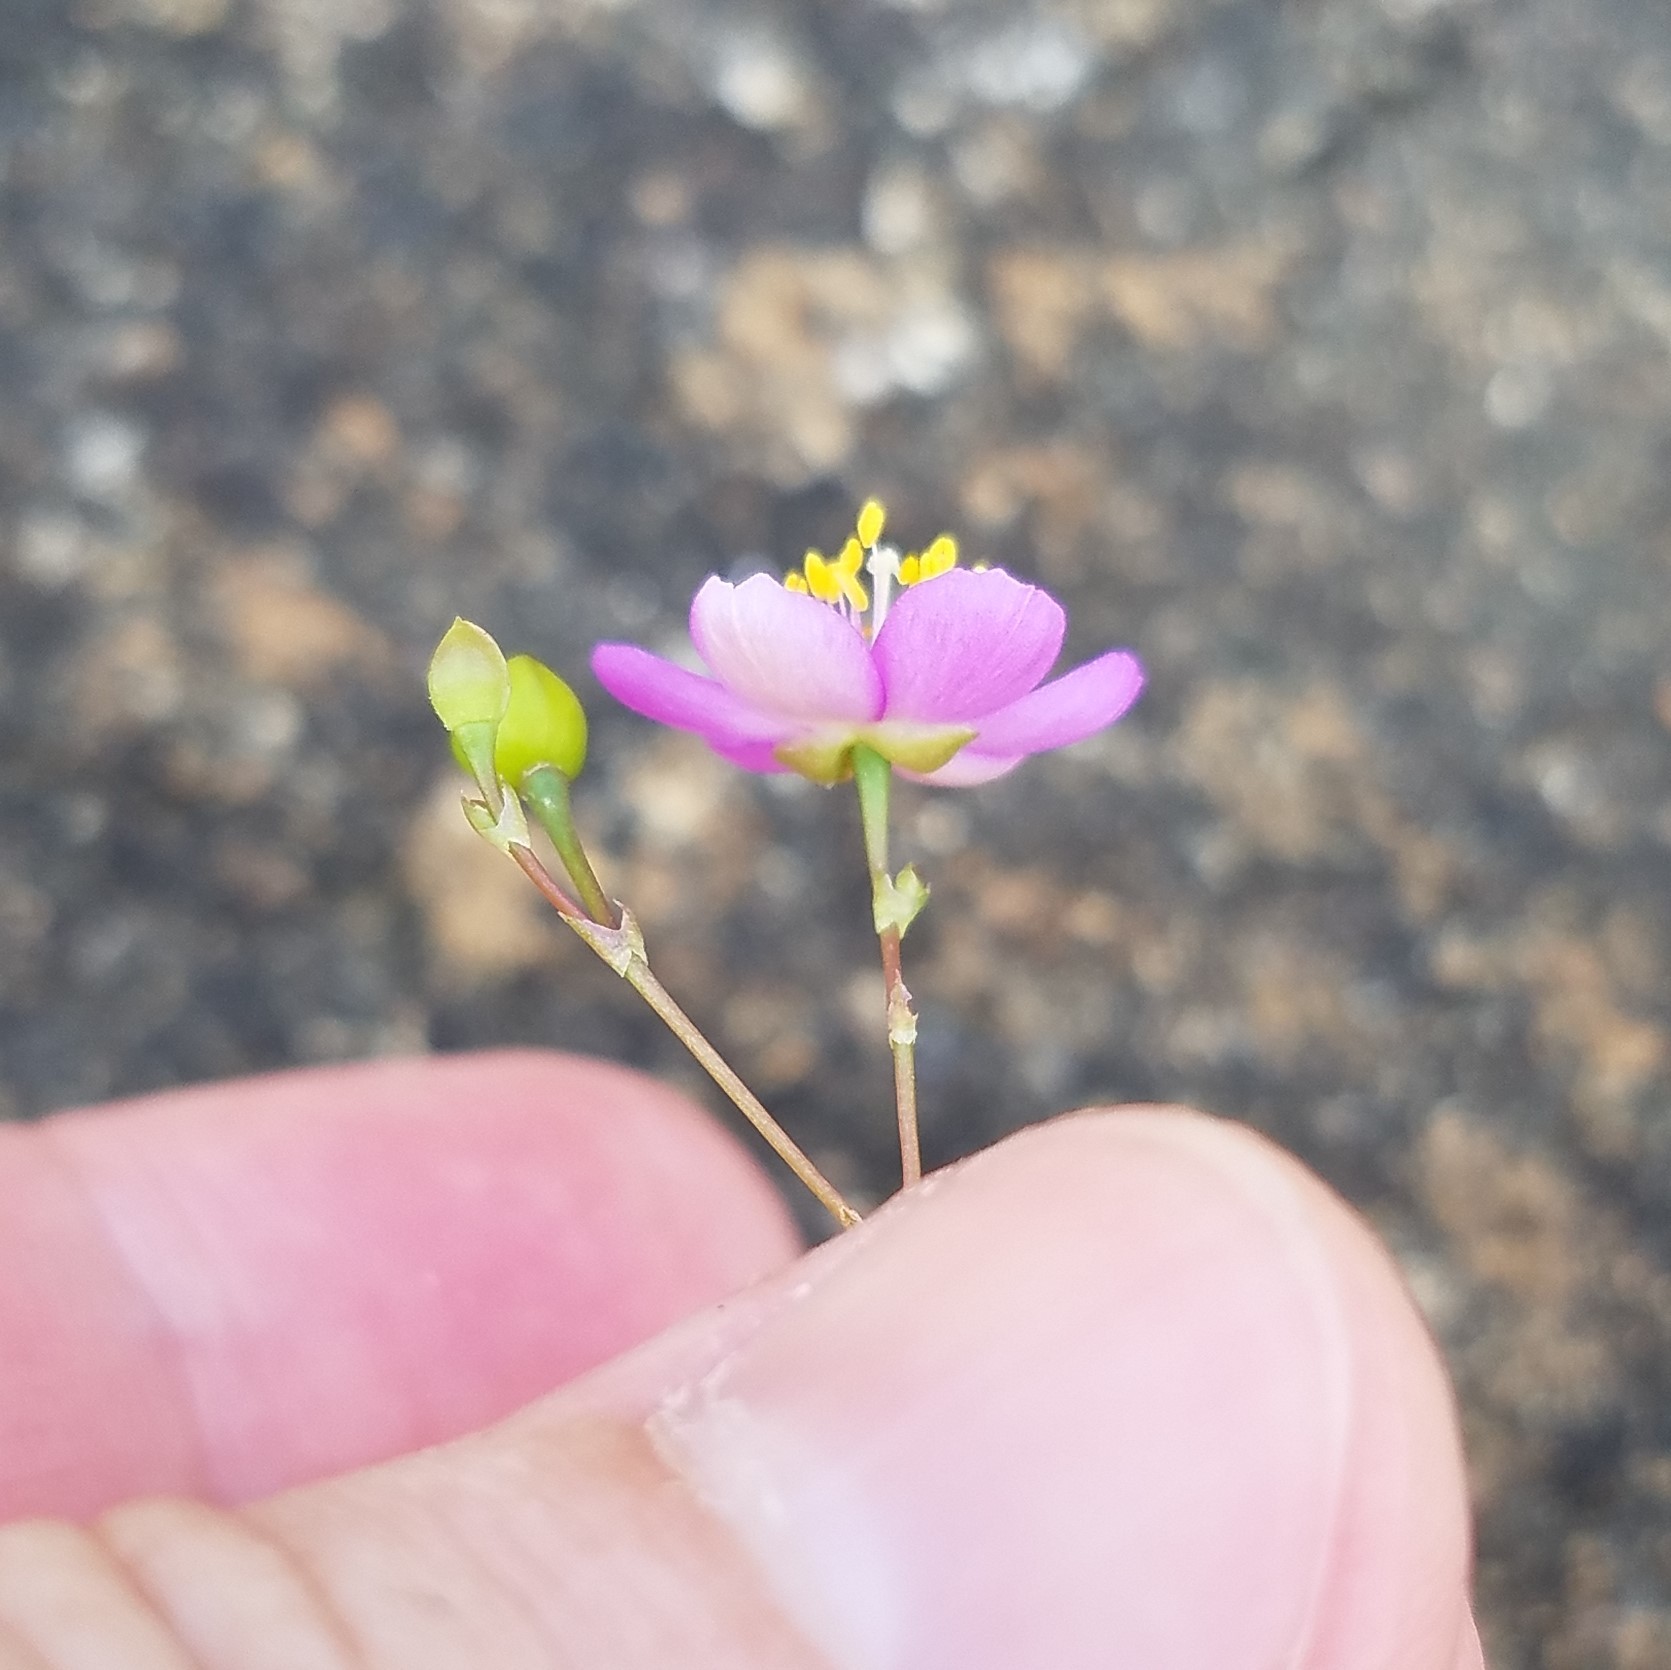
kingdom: Plantae
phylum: Tracheophyta
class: Magnoliopsida
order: Caryophyllales
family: Montiaceae
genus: Phemeranthus
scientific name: Phemeranthus teretifolius
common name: Quill fameflower
